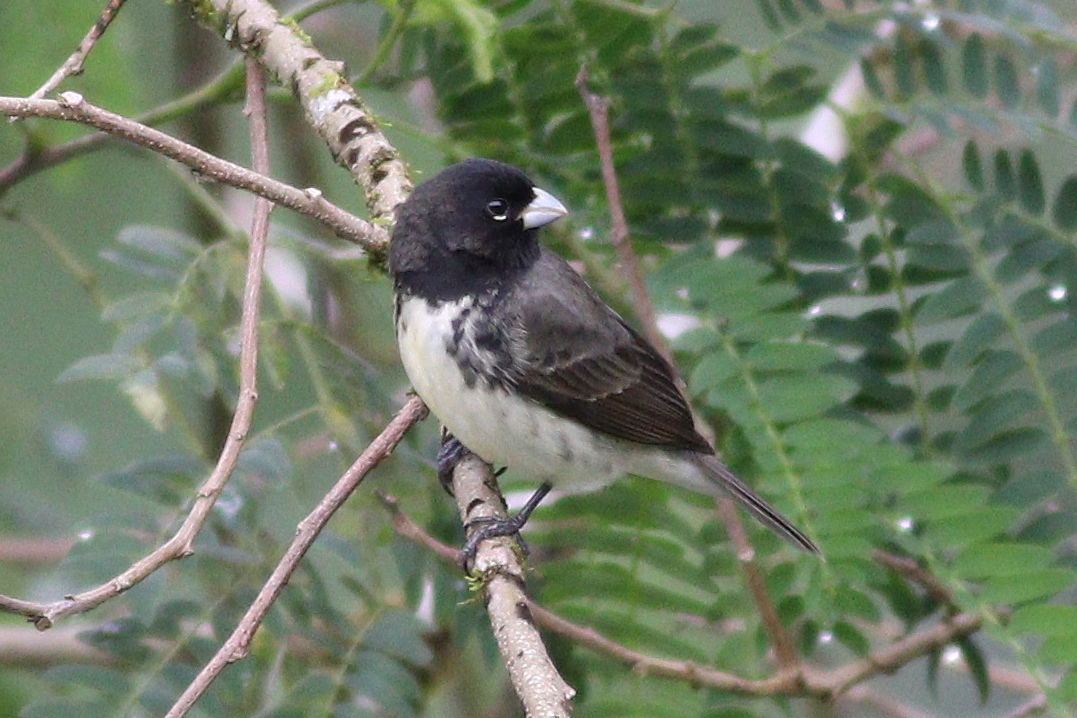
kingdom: Animalia
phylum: Chordata
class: Aves
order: Passeriformes
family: Thraupidae
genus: Sporophila
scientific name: Sporophila nigricollis
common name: Yellow-bellied seedeater
